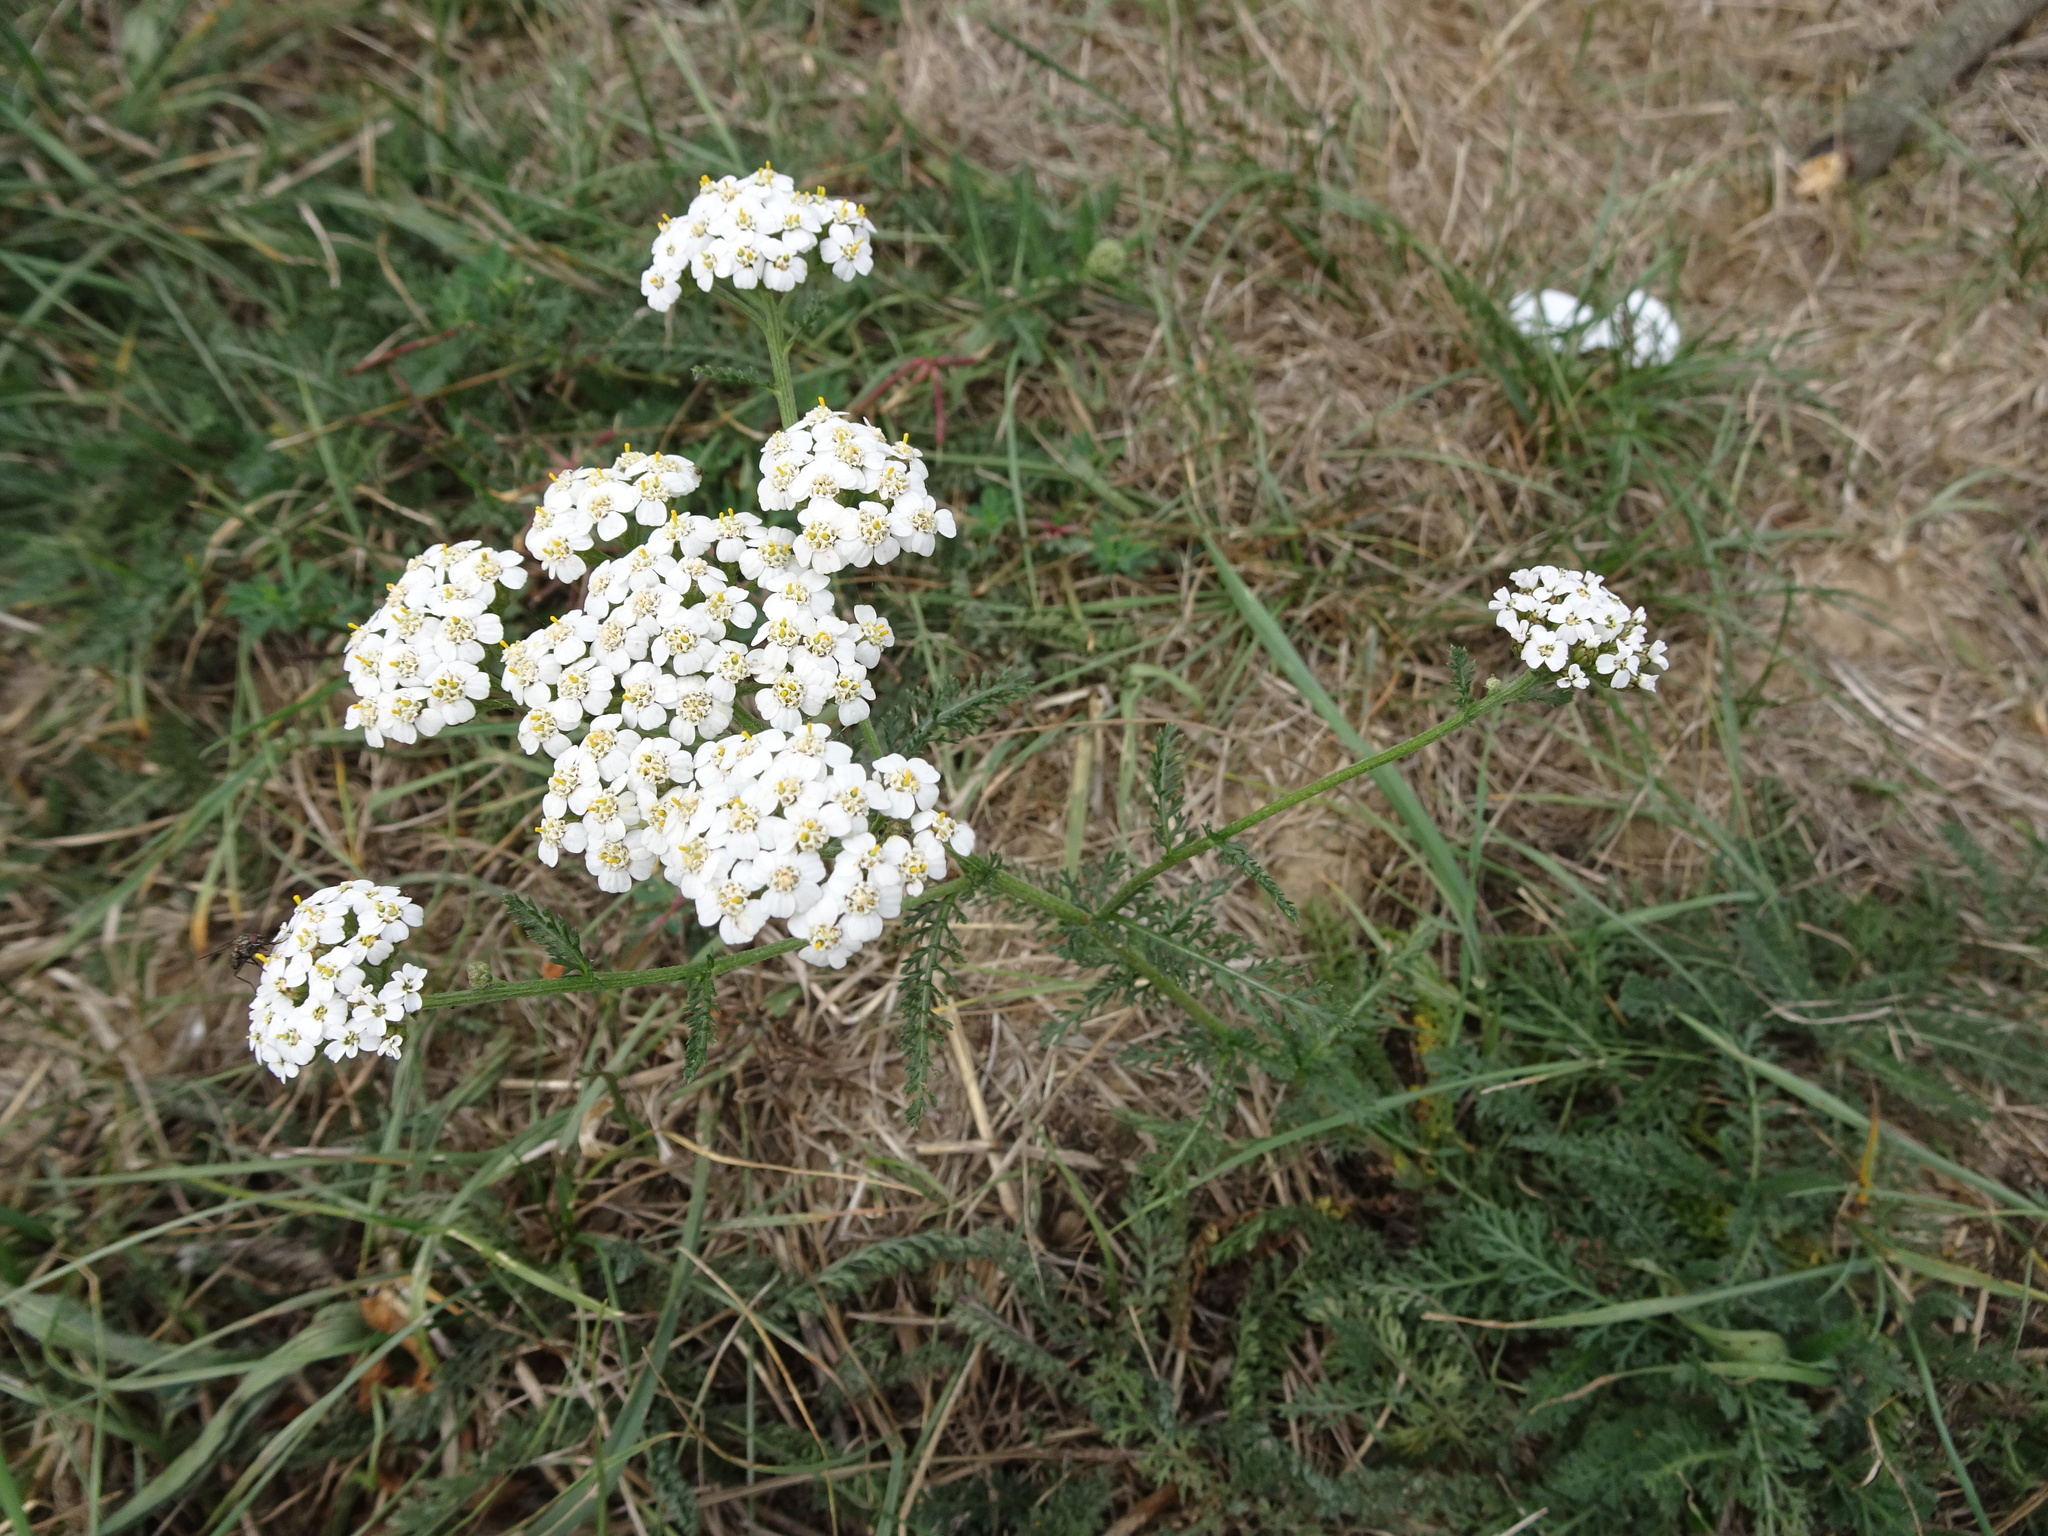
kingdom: Plantae
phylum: Tracheophyta
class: Magnoliopsida
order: Asterales
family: Asteraceae
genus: Achillea
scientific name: Achillea millefolium
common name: Yarrow
